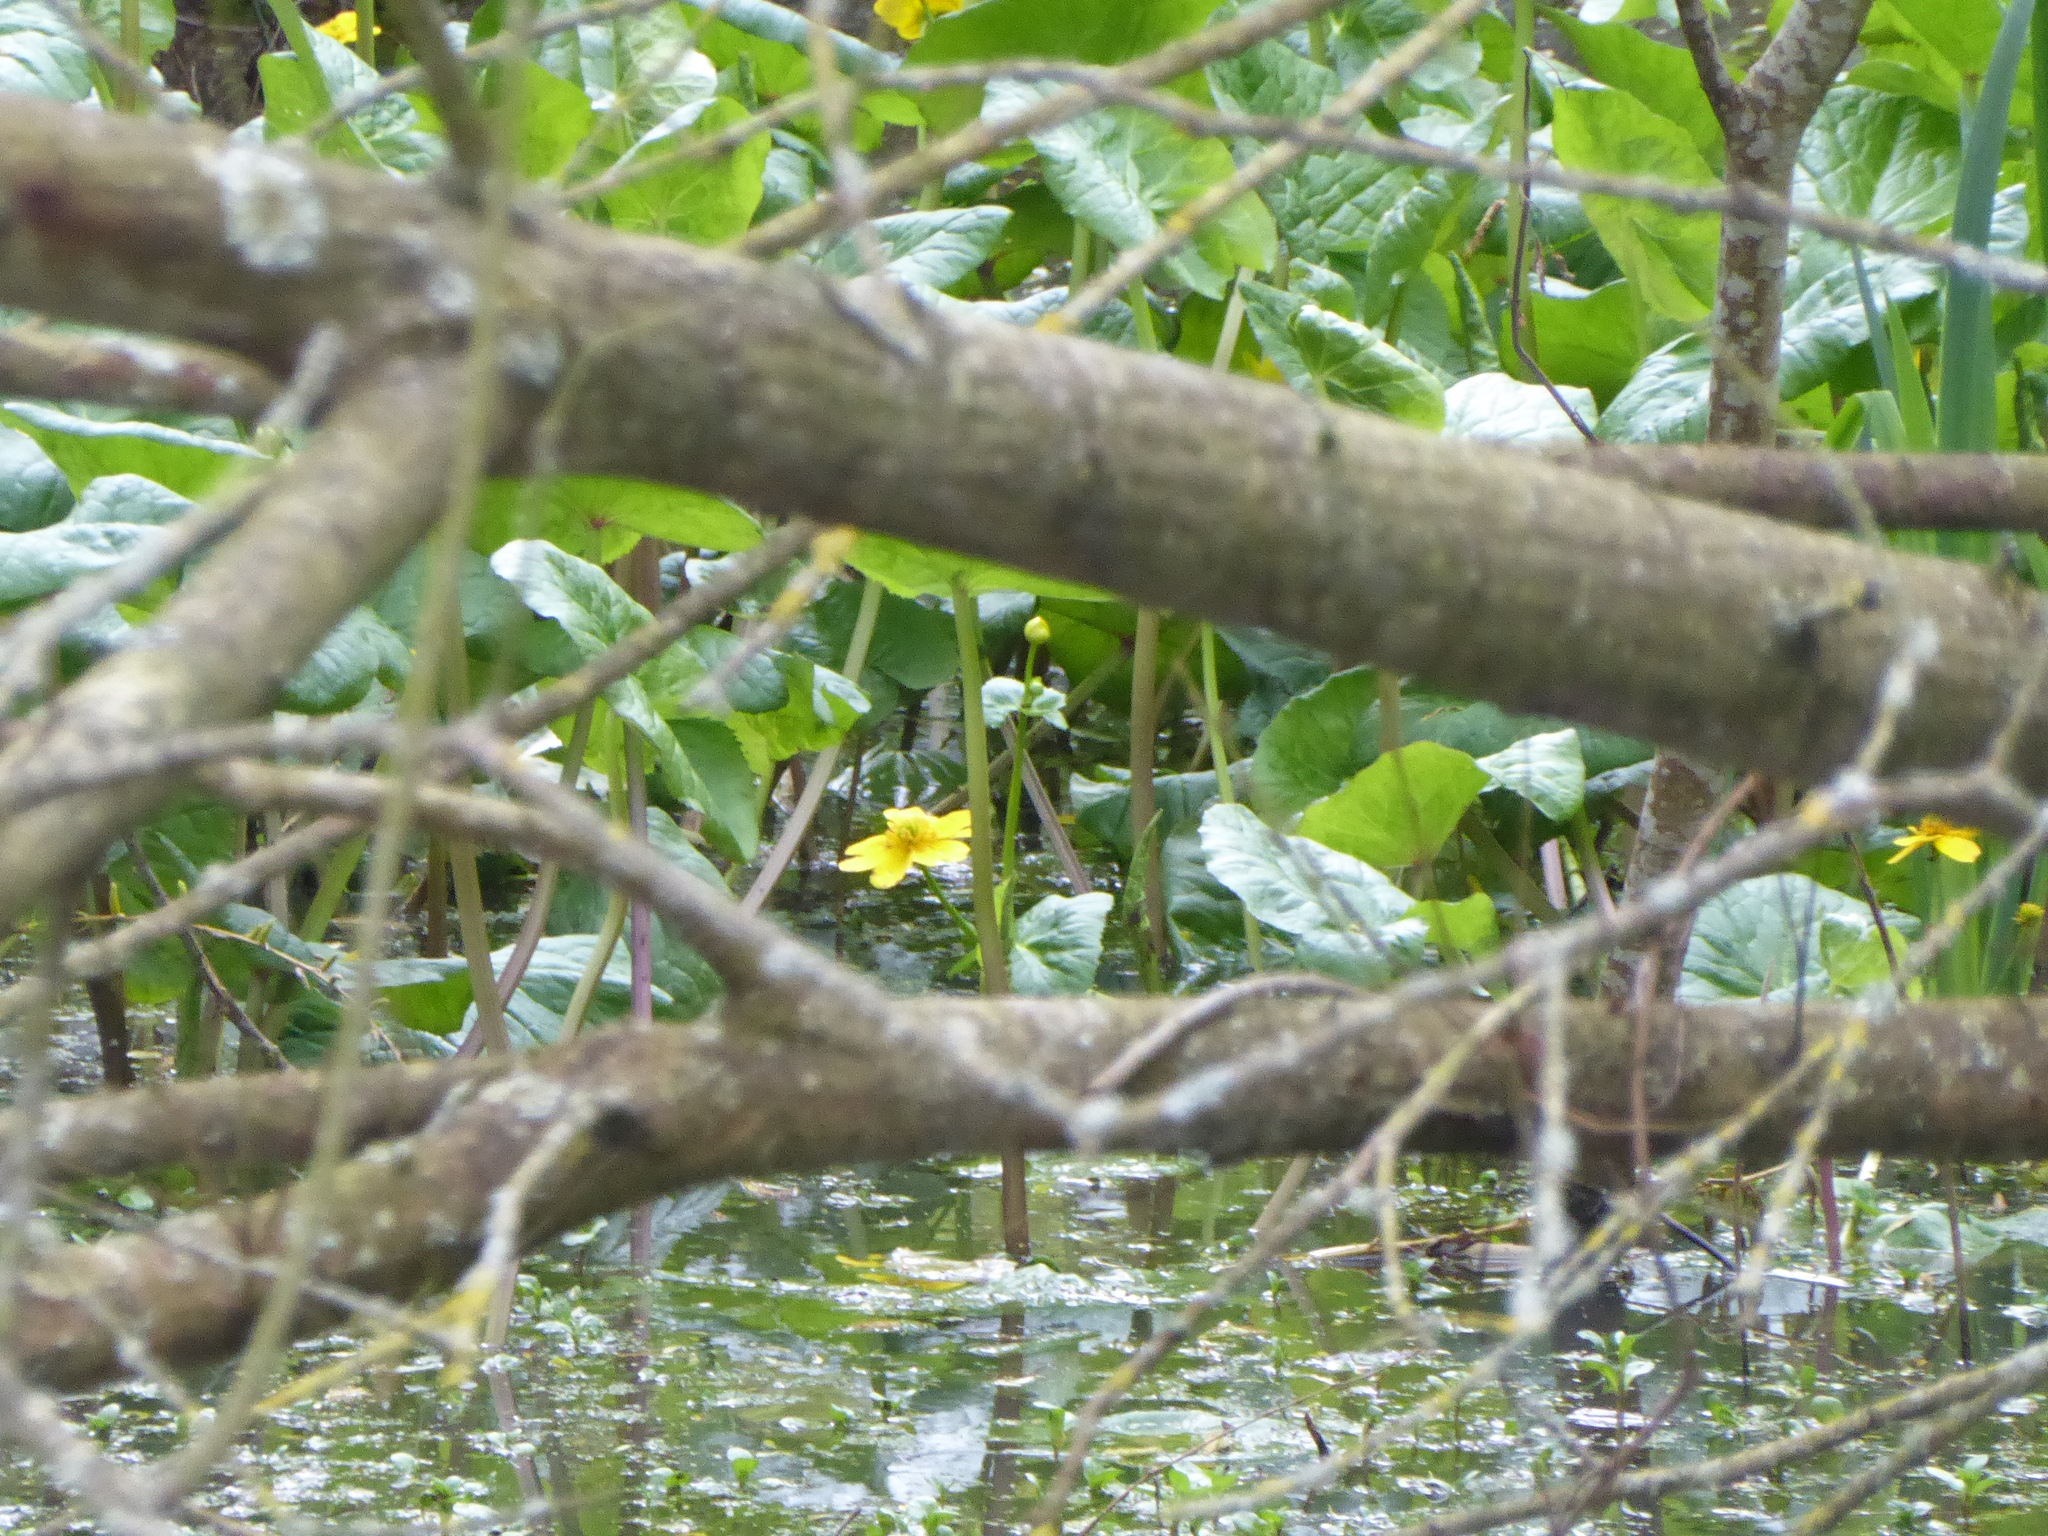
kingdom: Plantae
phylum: Tracheophyta
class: Magnoliopsida
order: Ranunculales
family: Ranunculaceae
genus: Caltha
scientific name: Caltha palustris
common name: Marsh marigold
